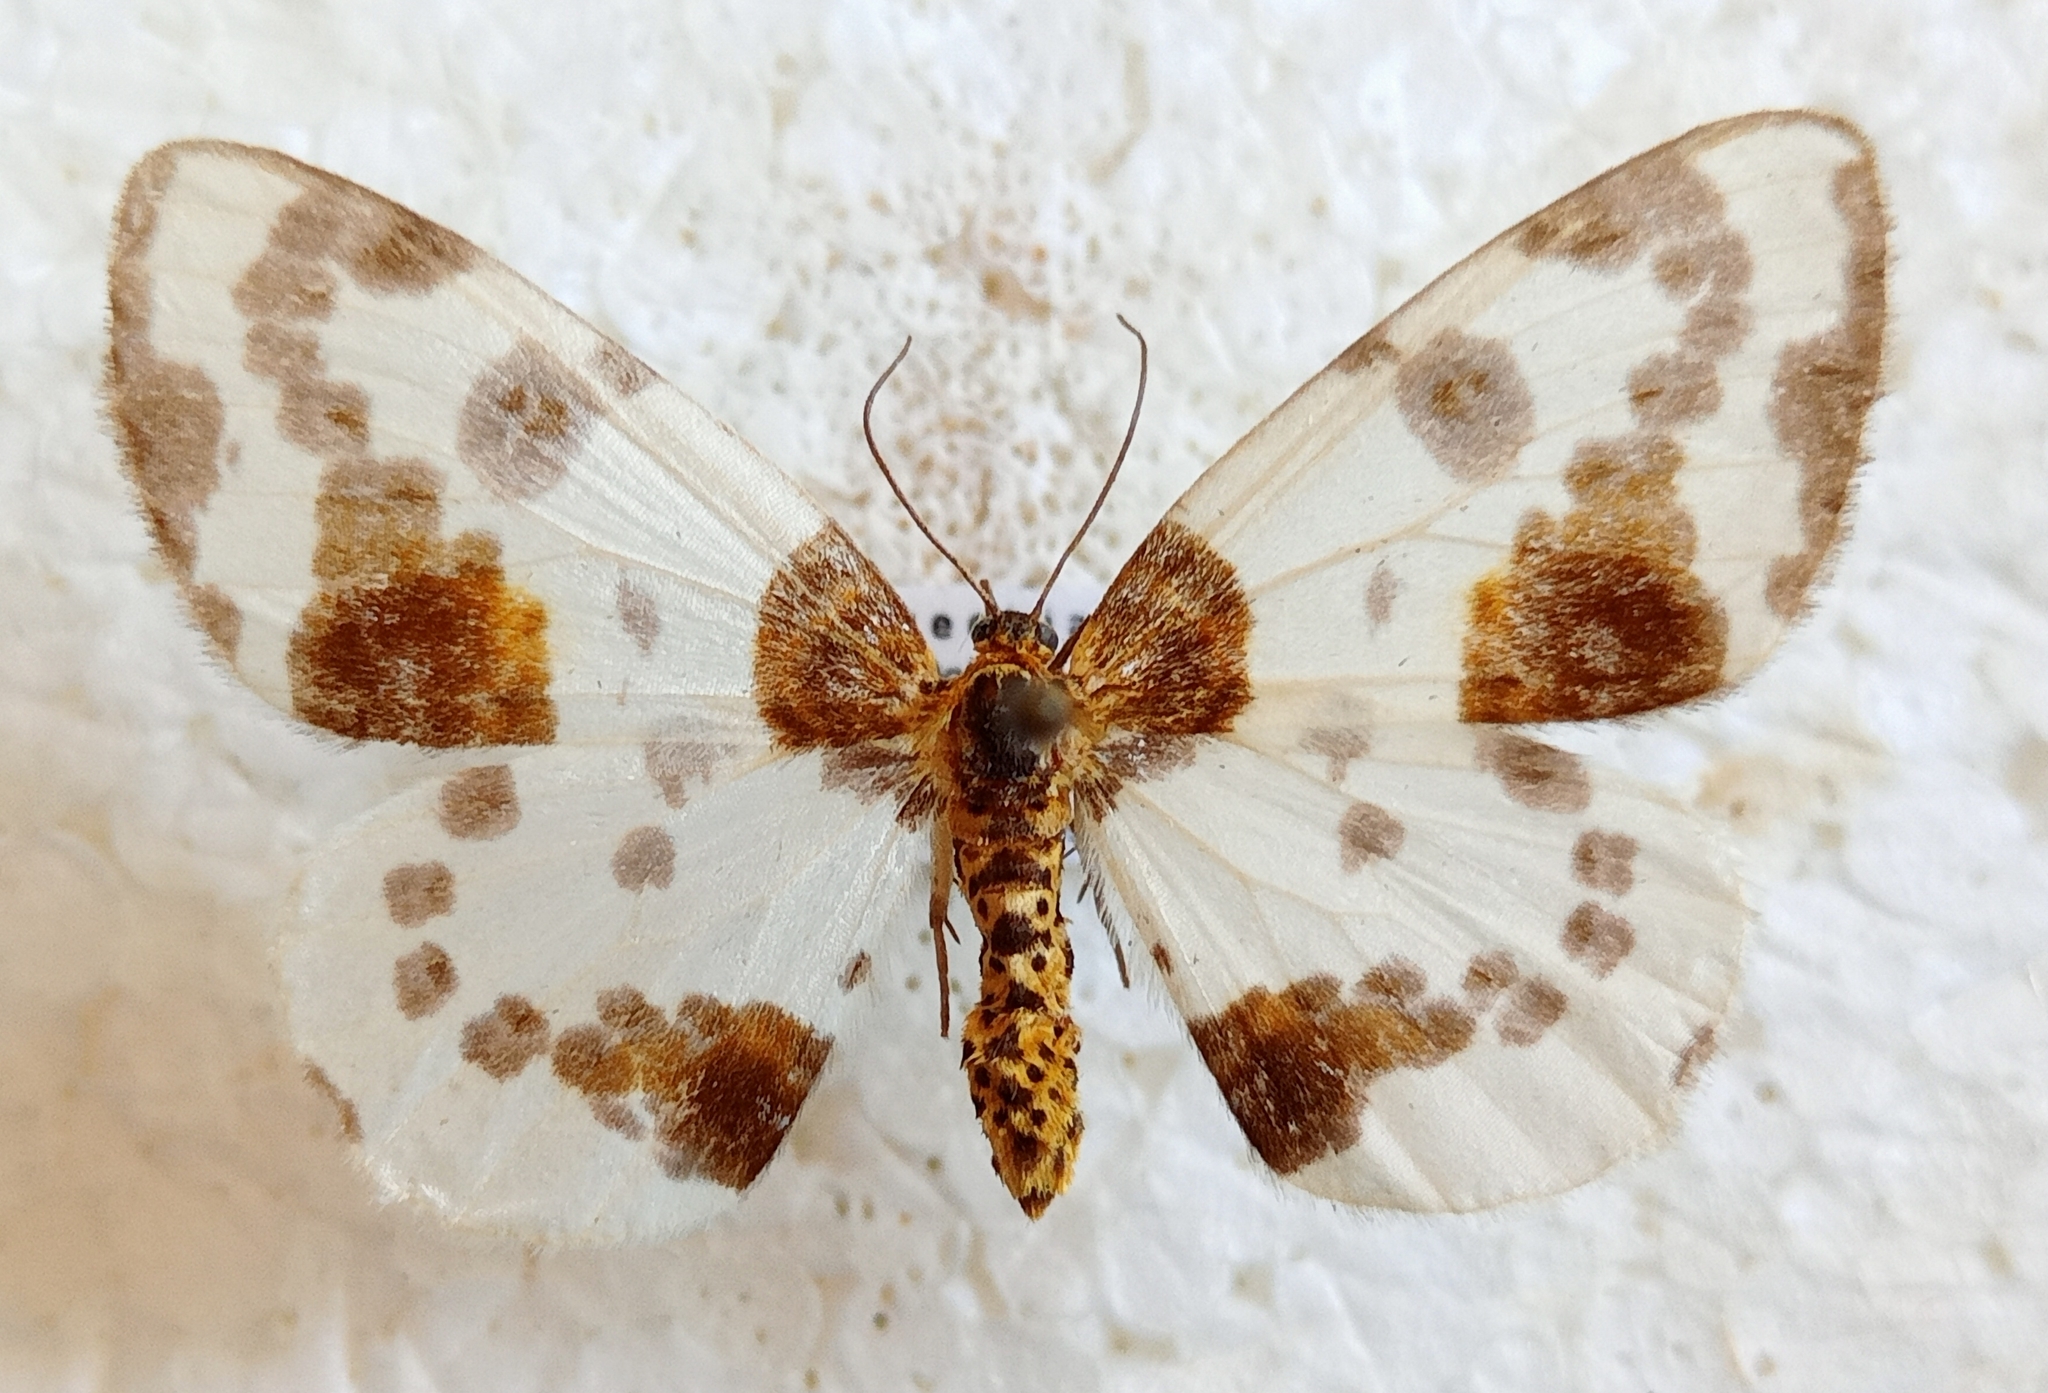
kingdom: Animalia
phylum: Arthropoda
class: Insecta
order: Lepidoptera
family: Geometridae
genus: Abraxas
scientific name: Abraxas sylvata
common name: Clouded magpie
